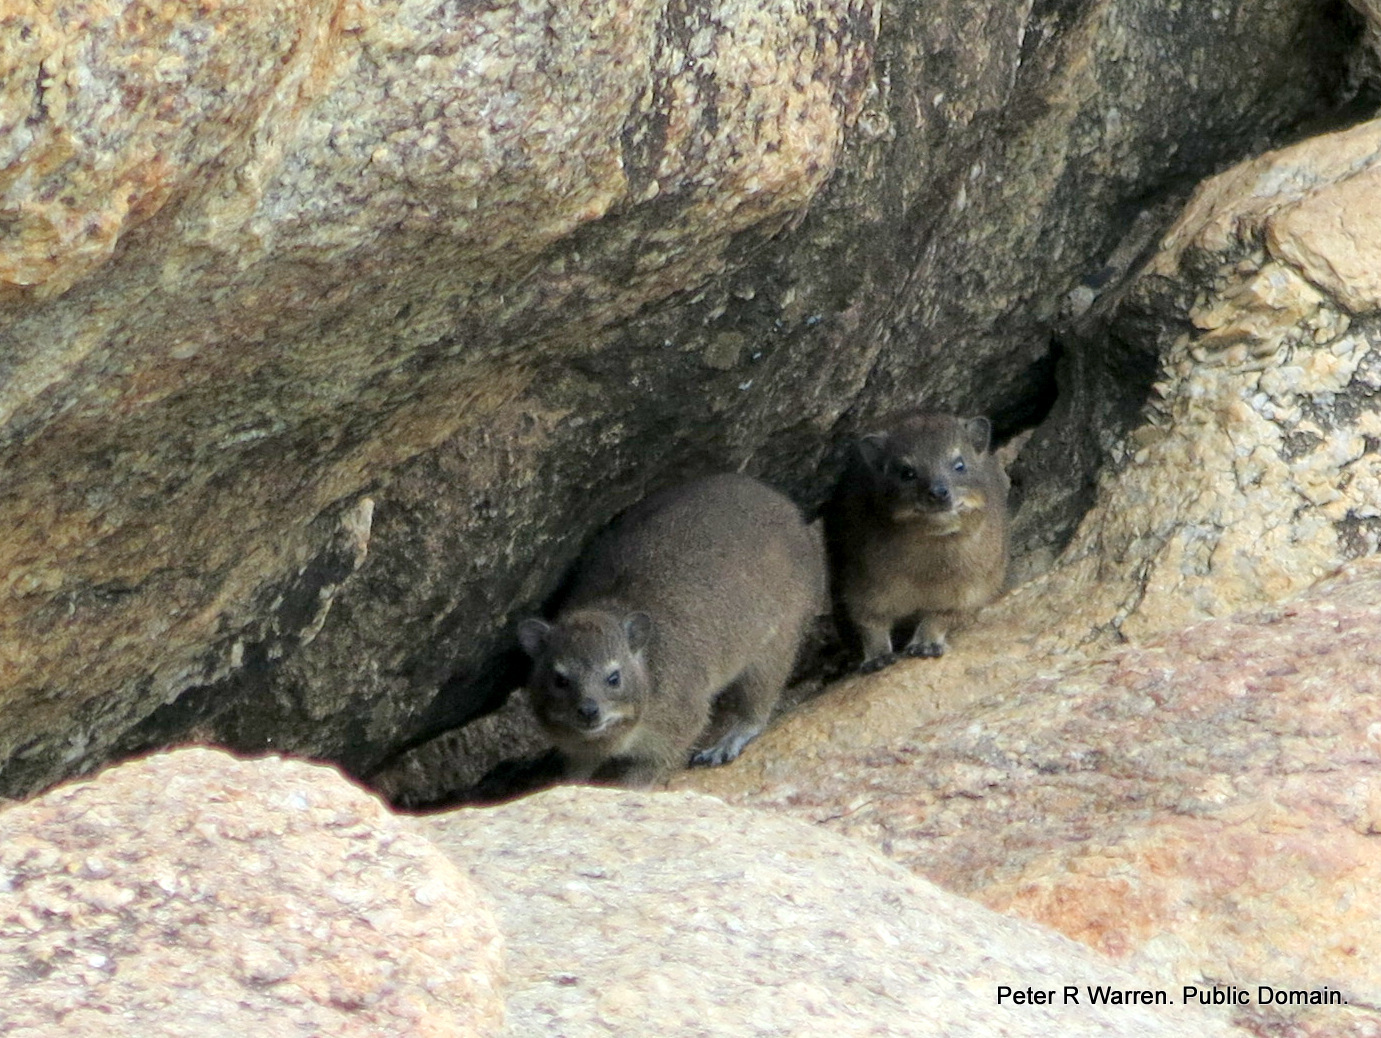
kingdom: Animalia
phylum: Chordata
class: Mammalia
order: Hyracoidea
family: Procaviidae
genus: Procavia
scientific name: Procavia capensis
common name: Rock hyrax
